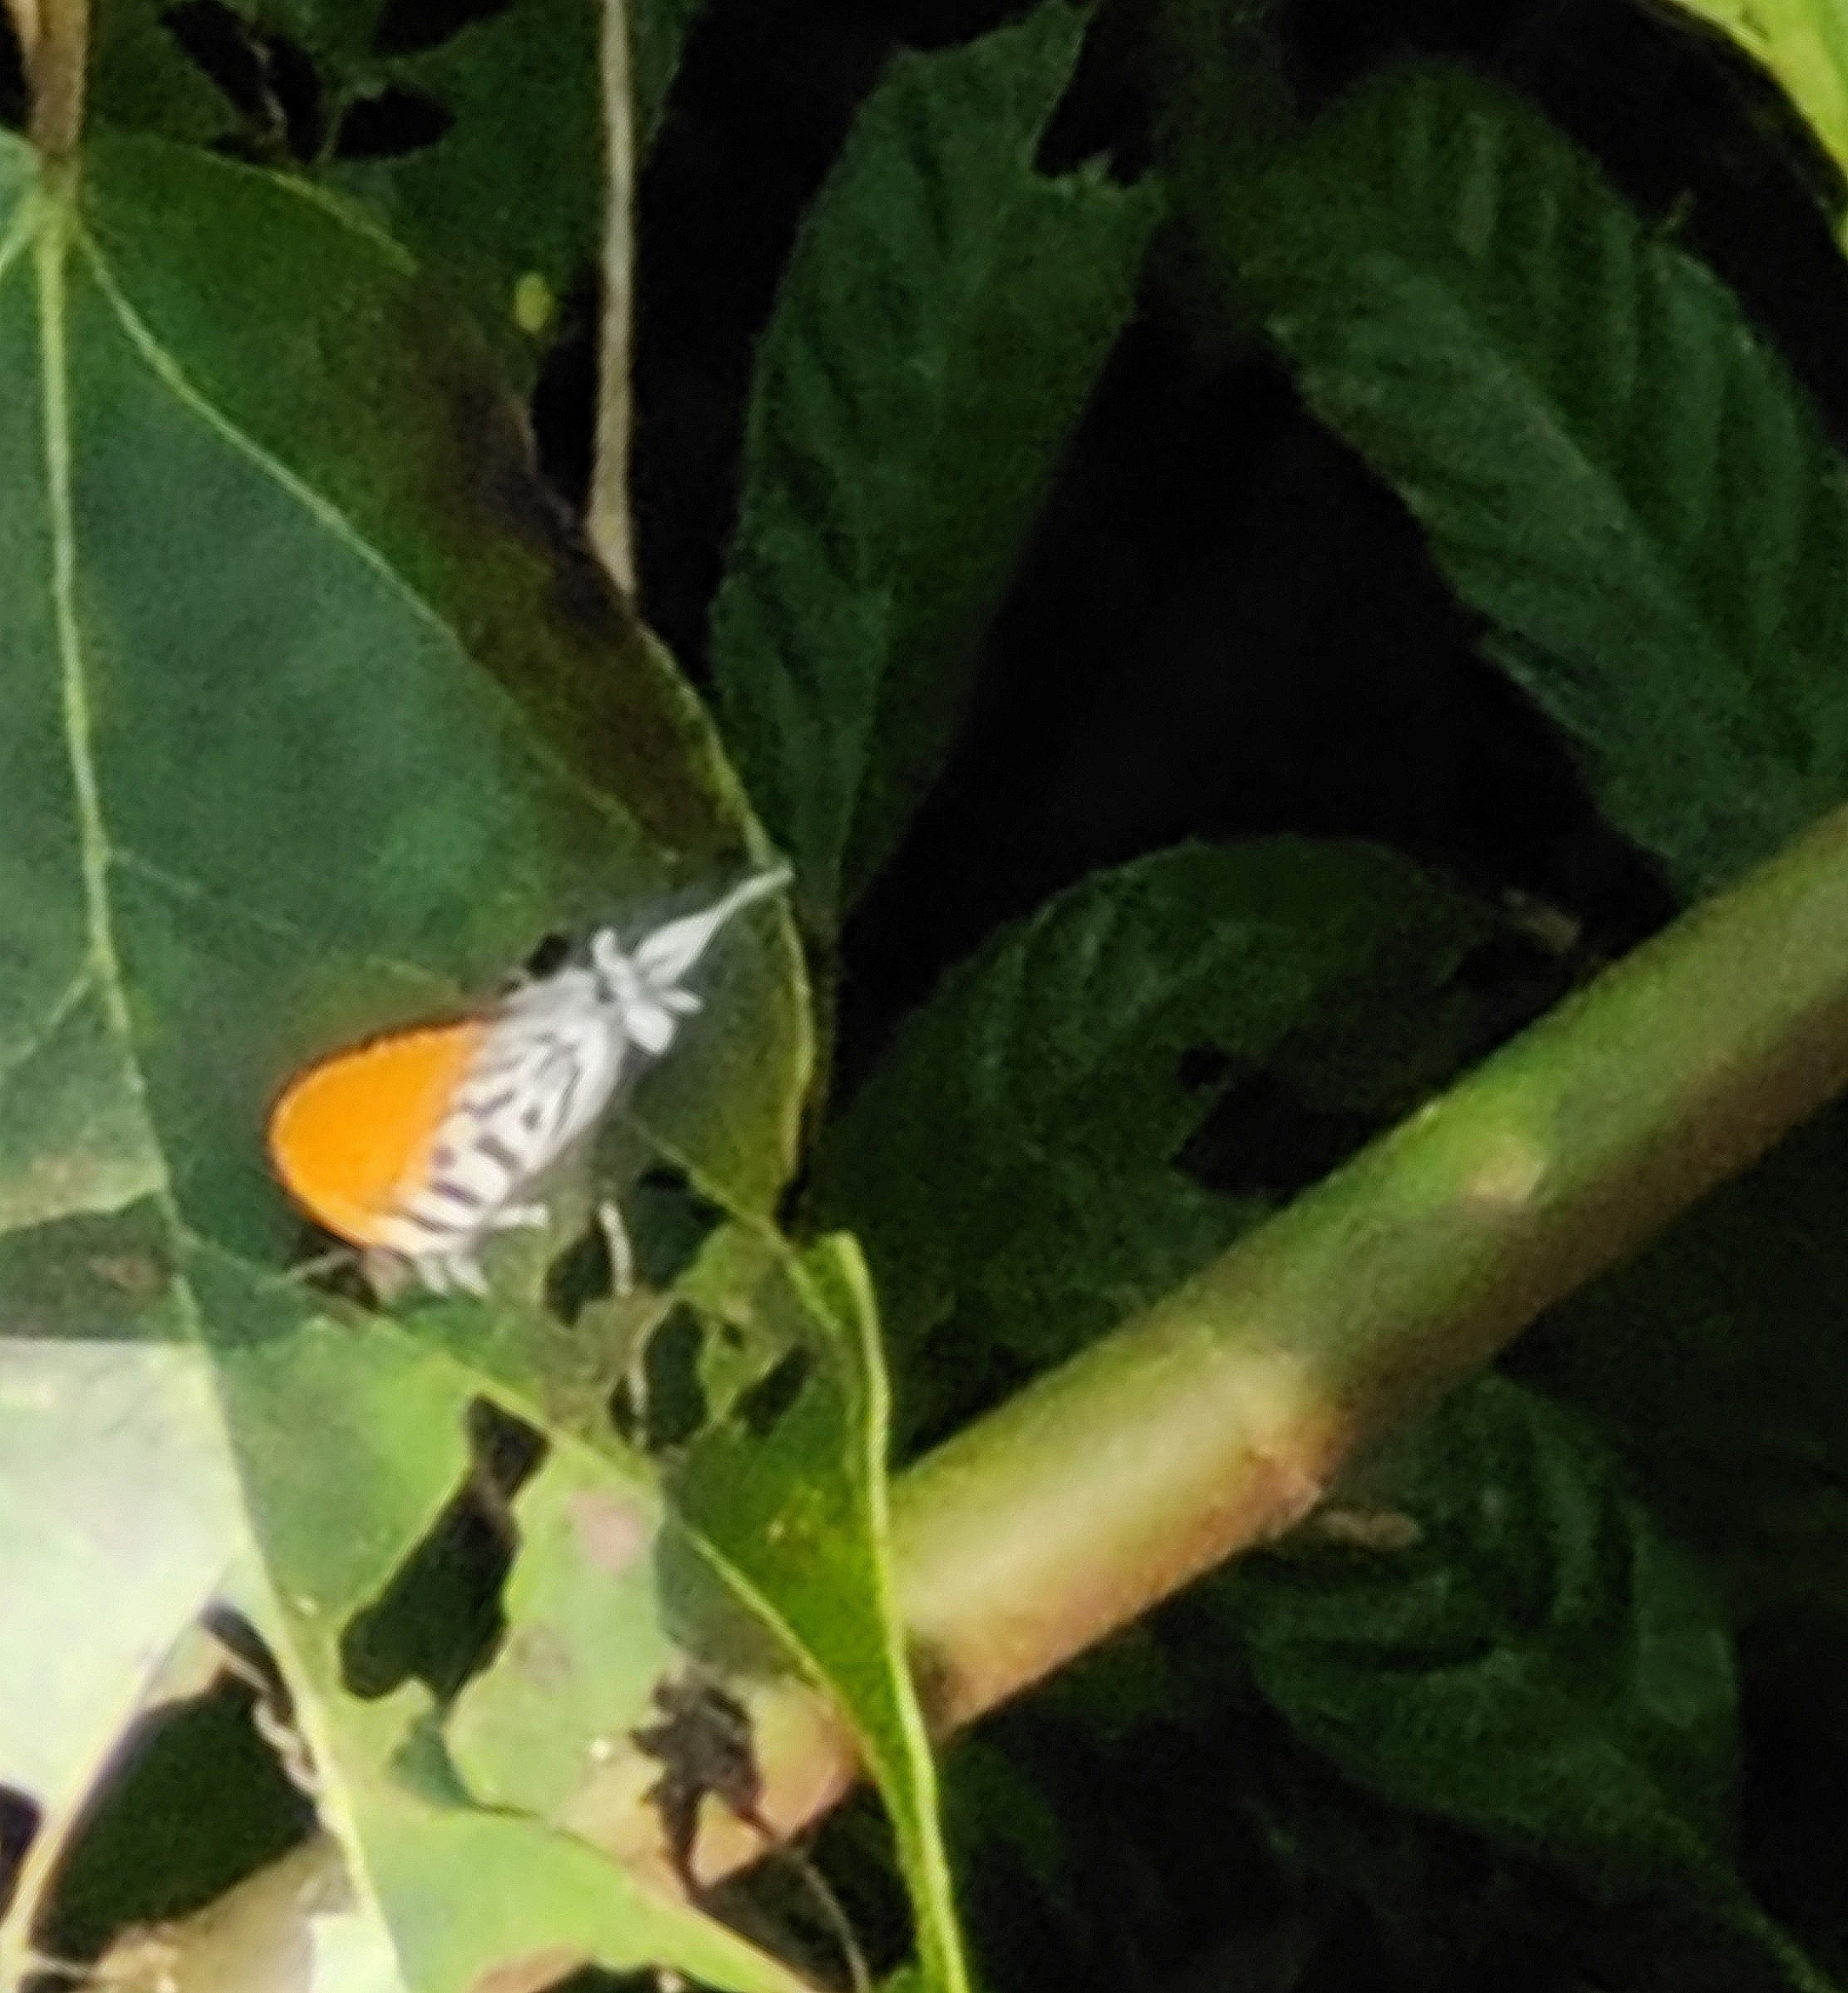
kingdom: Animalia
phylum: Arthropoda
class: Insecta
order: Lepidoptera
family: Lycaenidae
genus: Drupadia
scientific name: Drupadia ravindra
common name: Common posy
